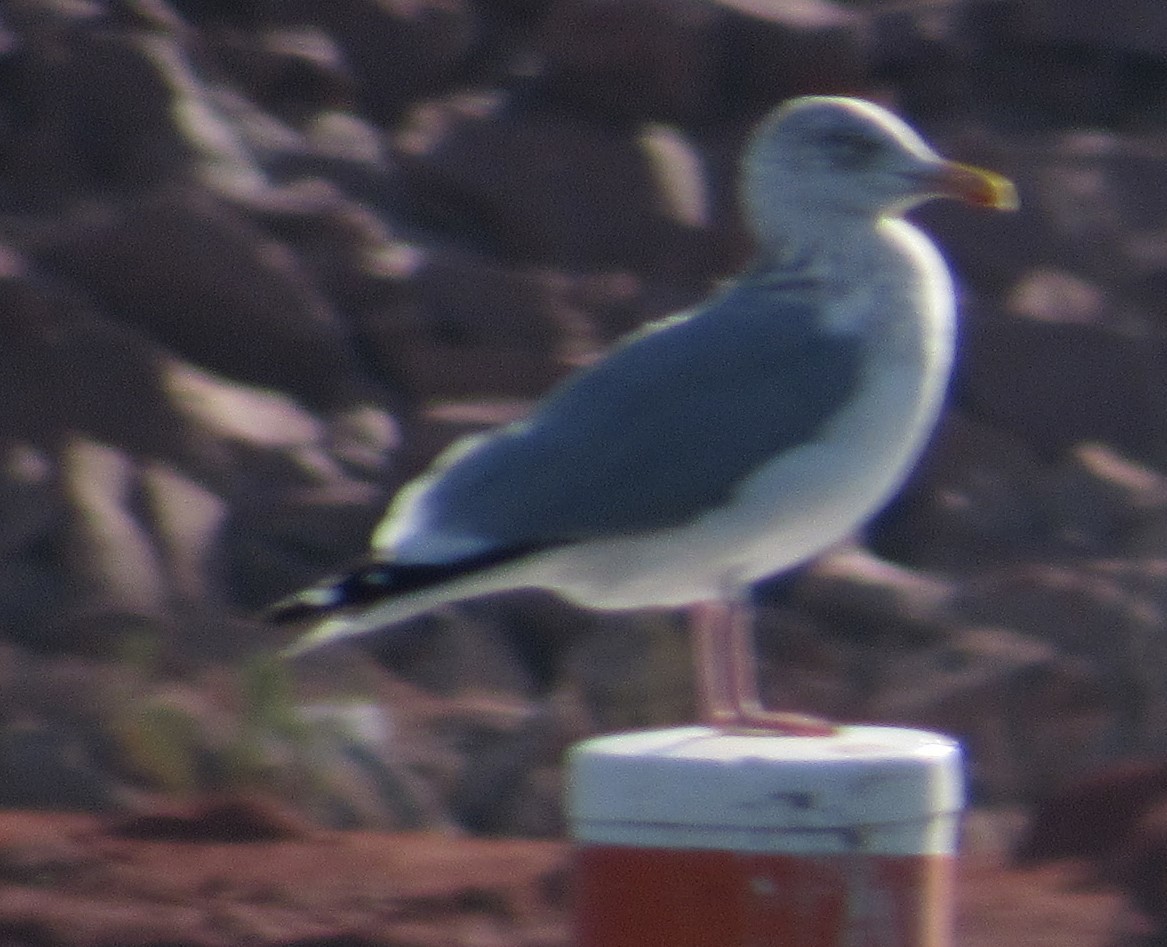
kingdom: Animalia
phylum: Chordata
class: Aves
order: Charadriiformes
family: Laridae
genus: Larus
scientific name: Larus argentatus
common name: Herring gull
